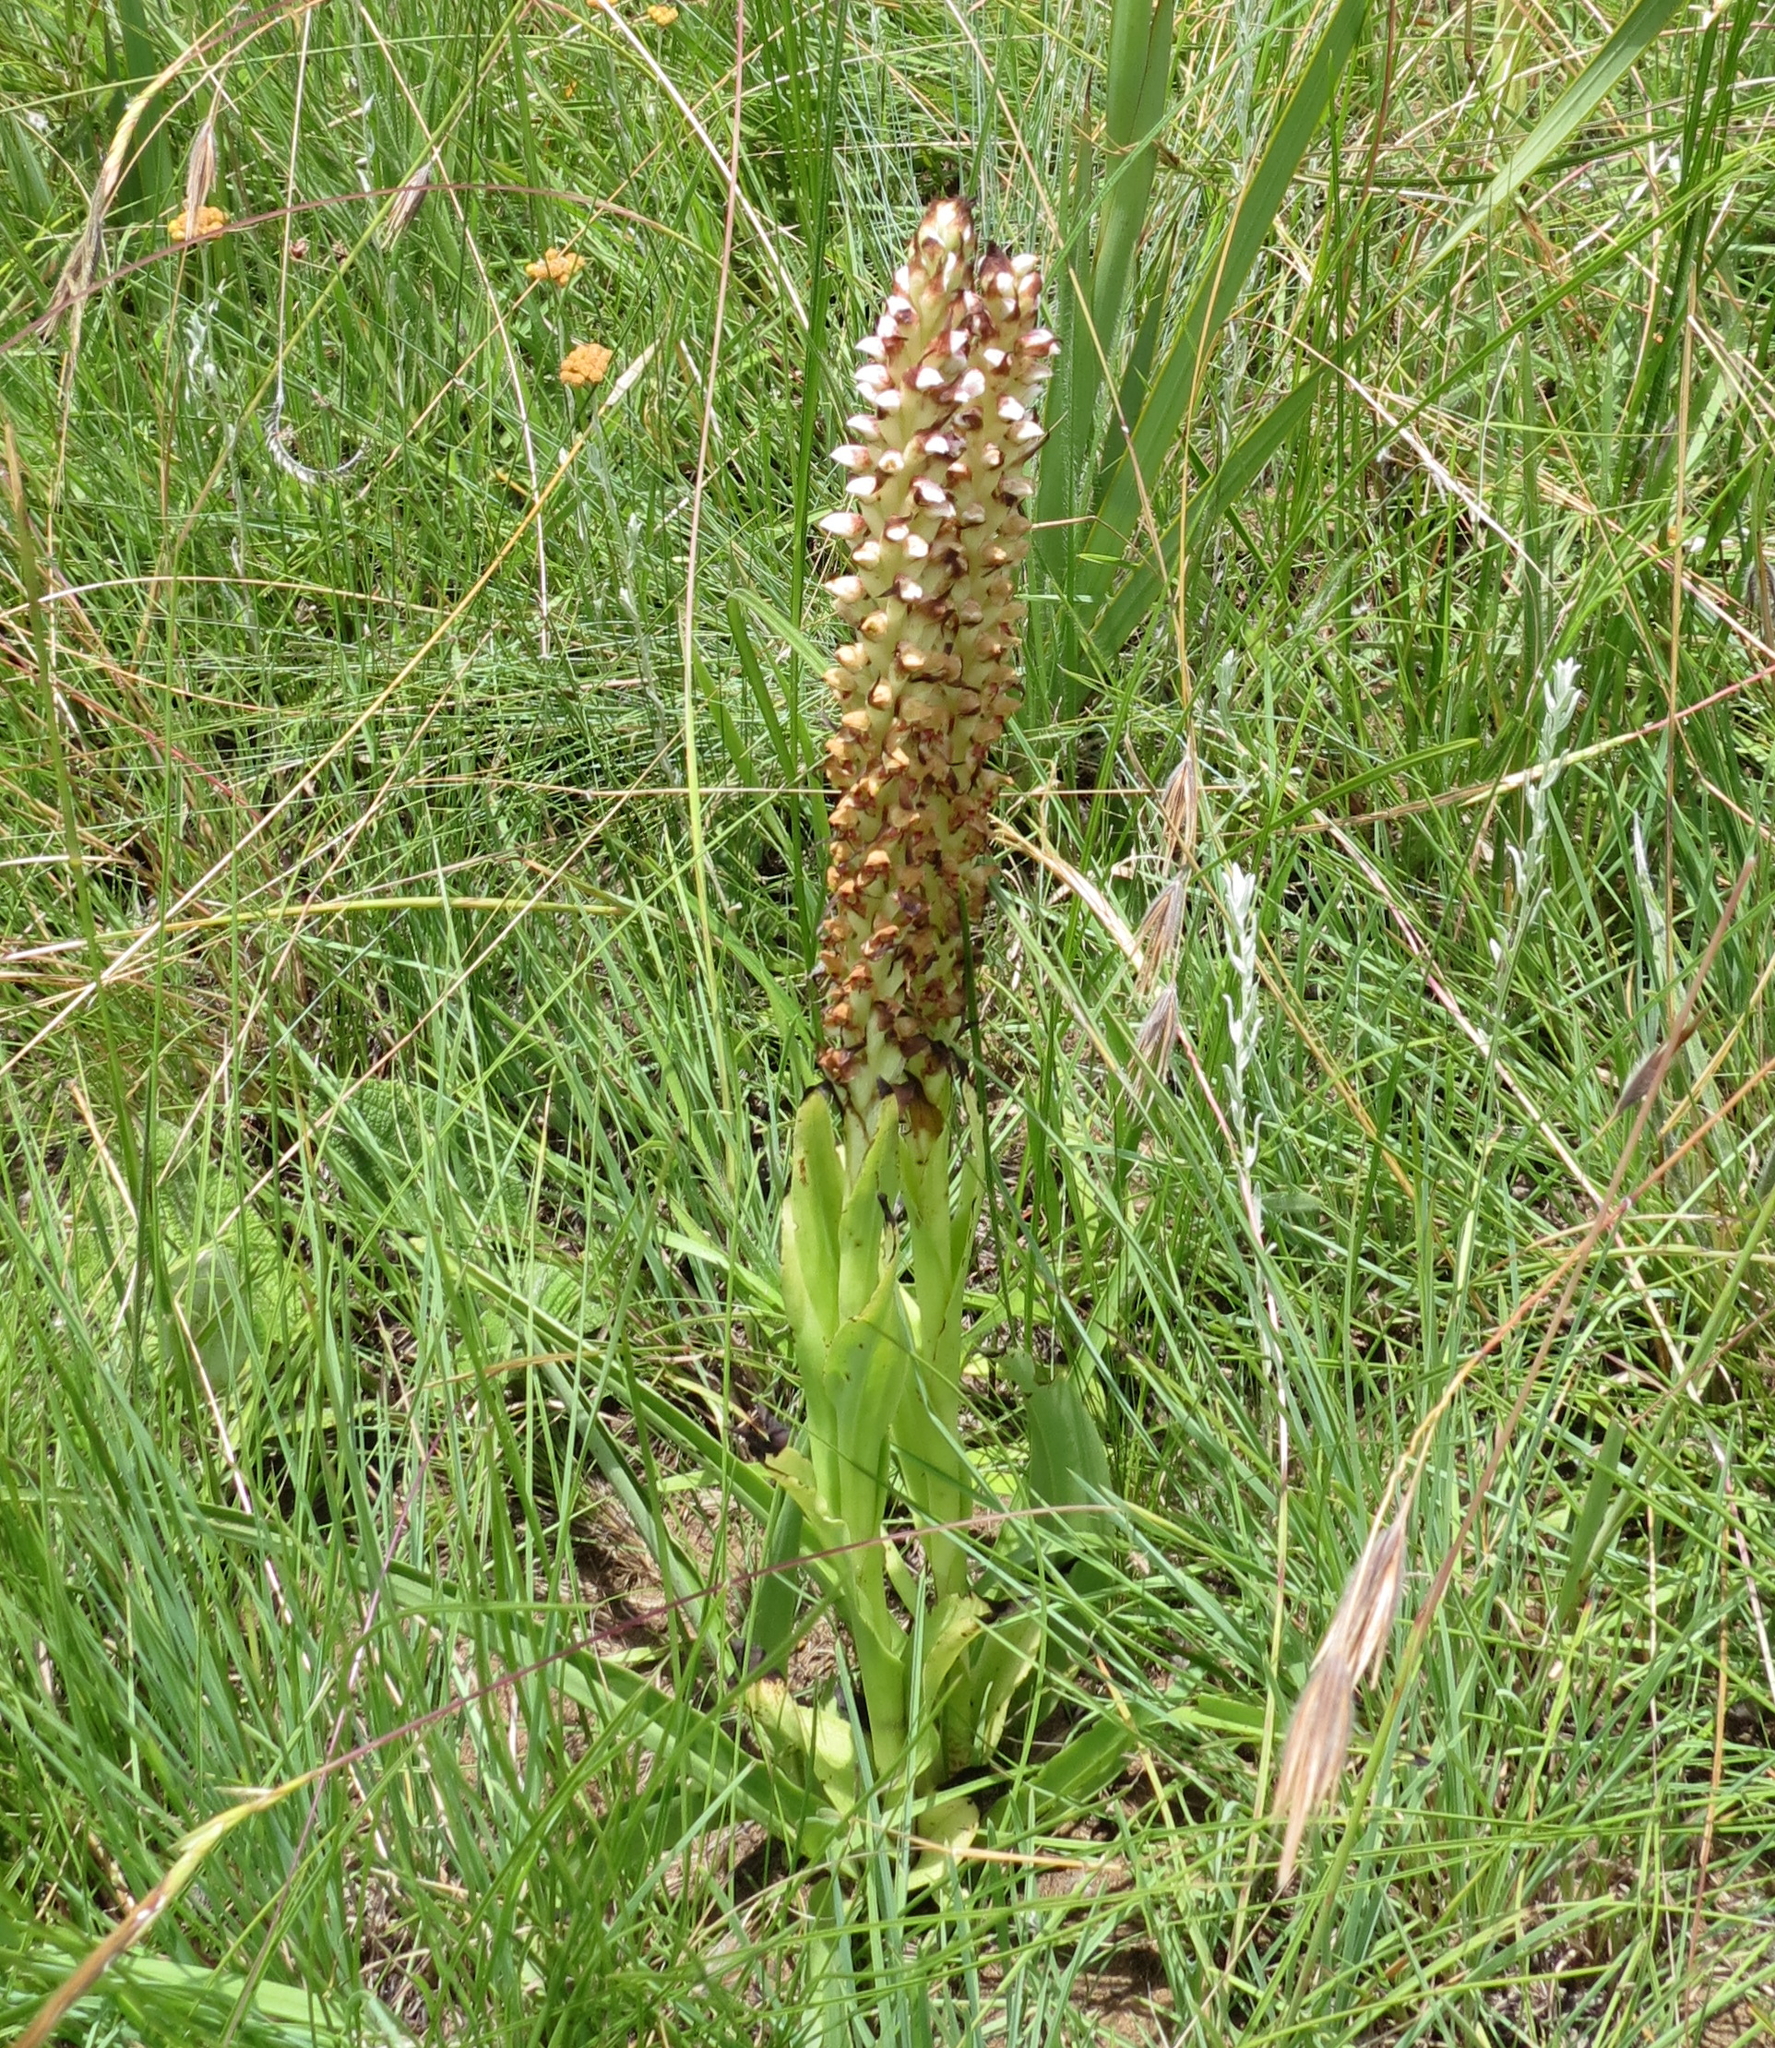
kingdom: Plantae
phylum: Tracheophyta
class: Liliopsida
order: Asparagales
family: Orchidaceae
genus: Disa
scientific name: Disa versicolor
